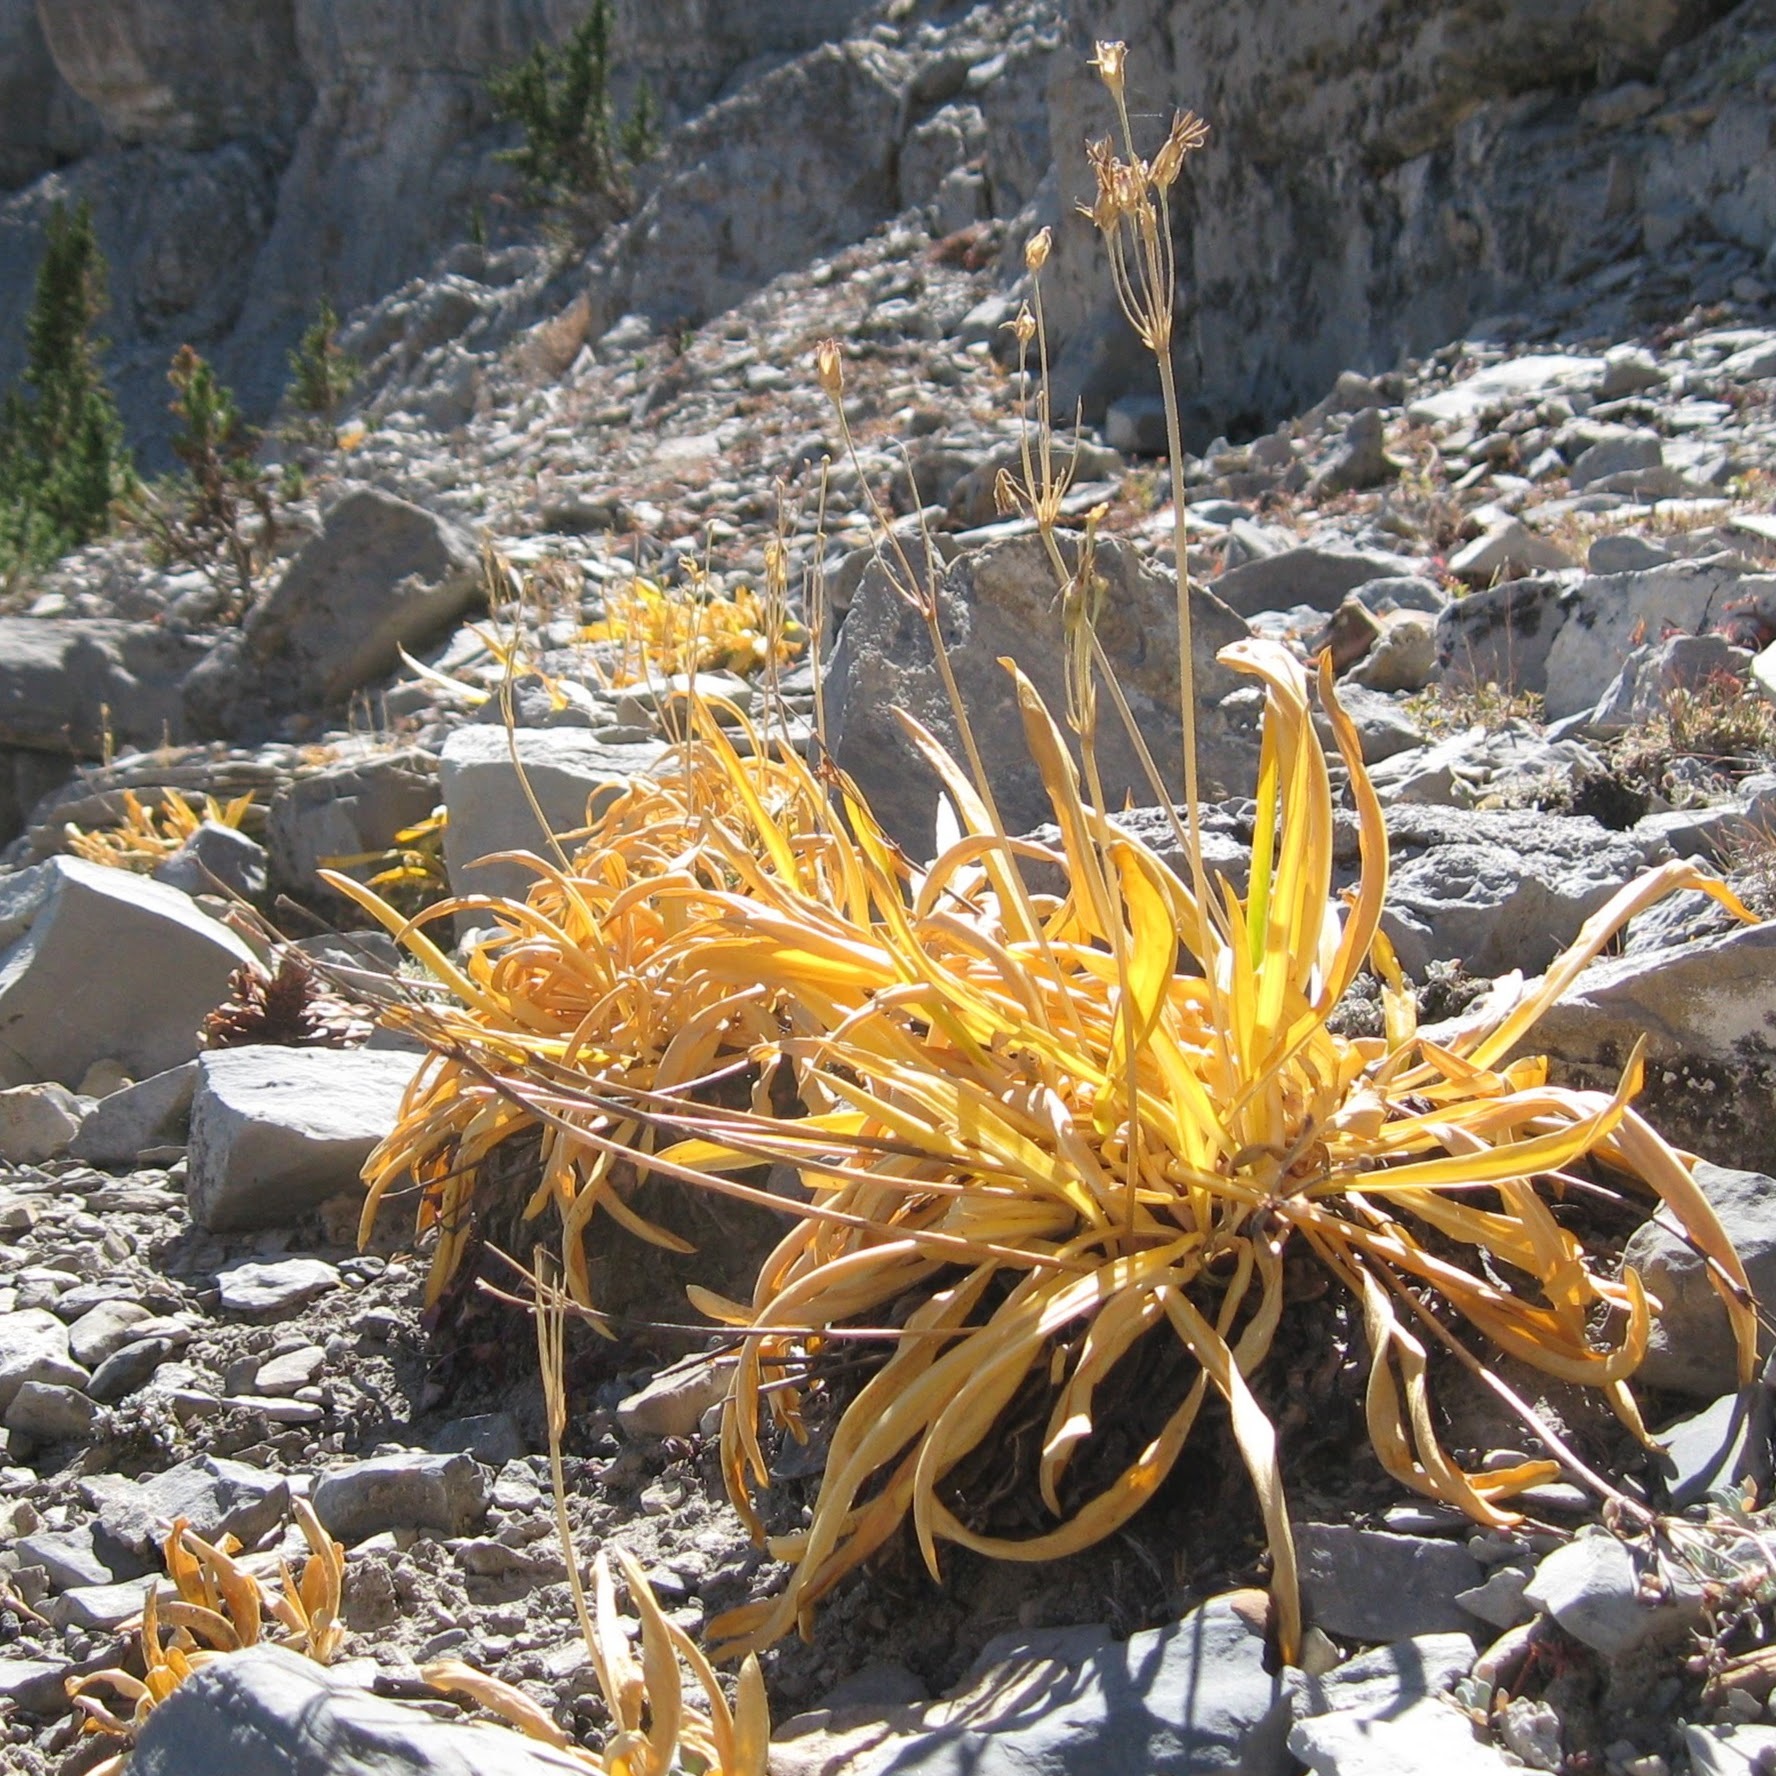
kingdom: Plantae
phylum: Tracheophyta
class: Magnoliopsida
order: Ericales
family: Primulaceae
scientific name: Primulaceae
